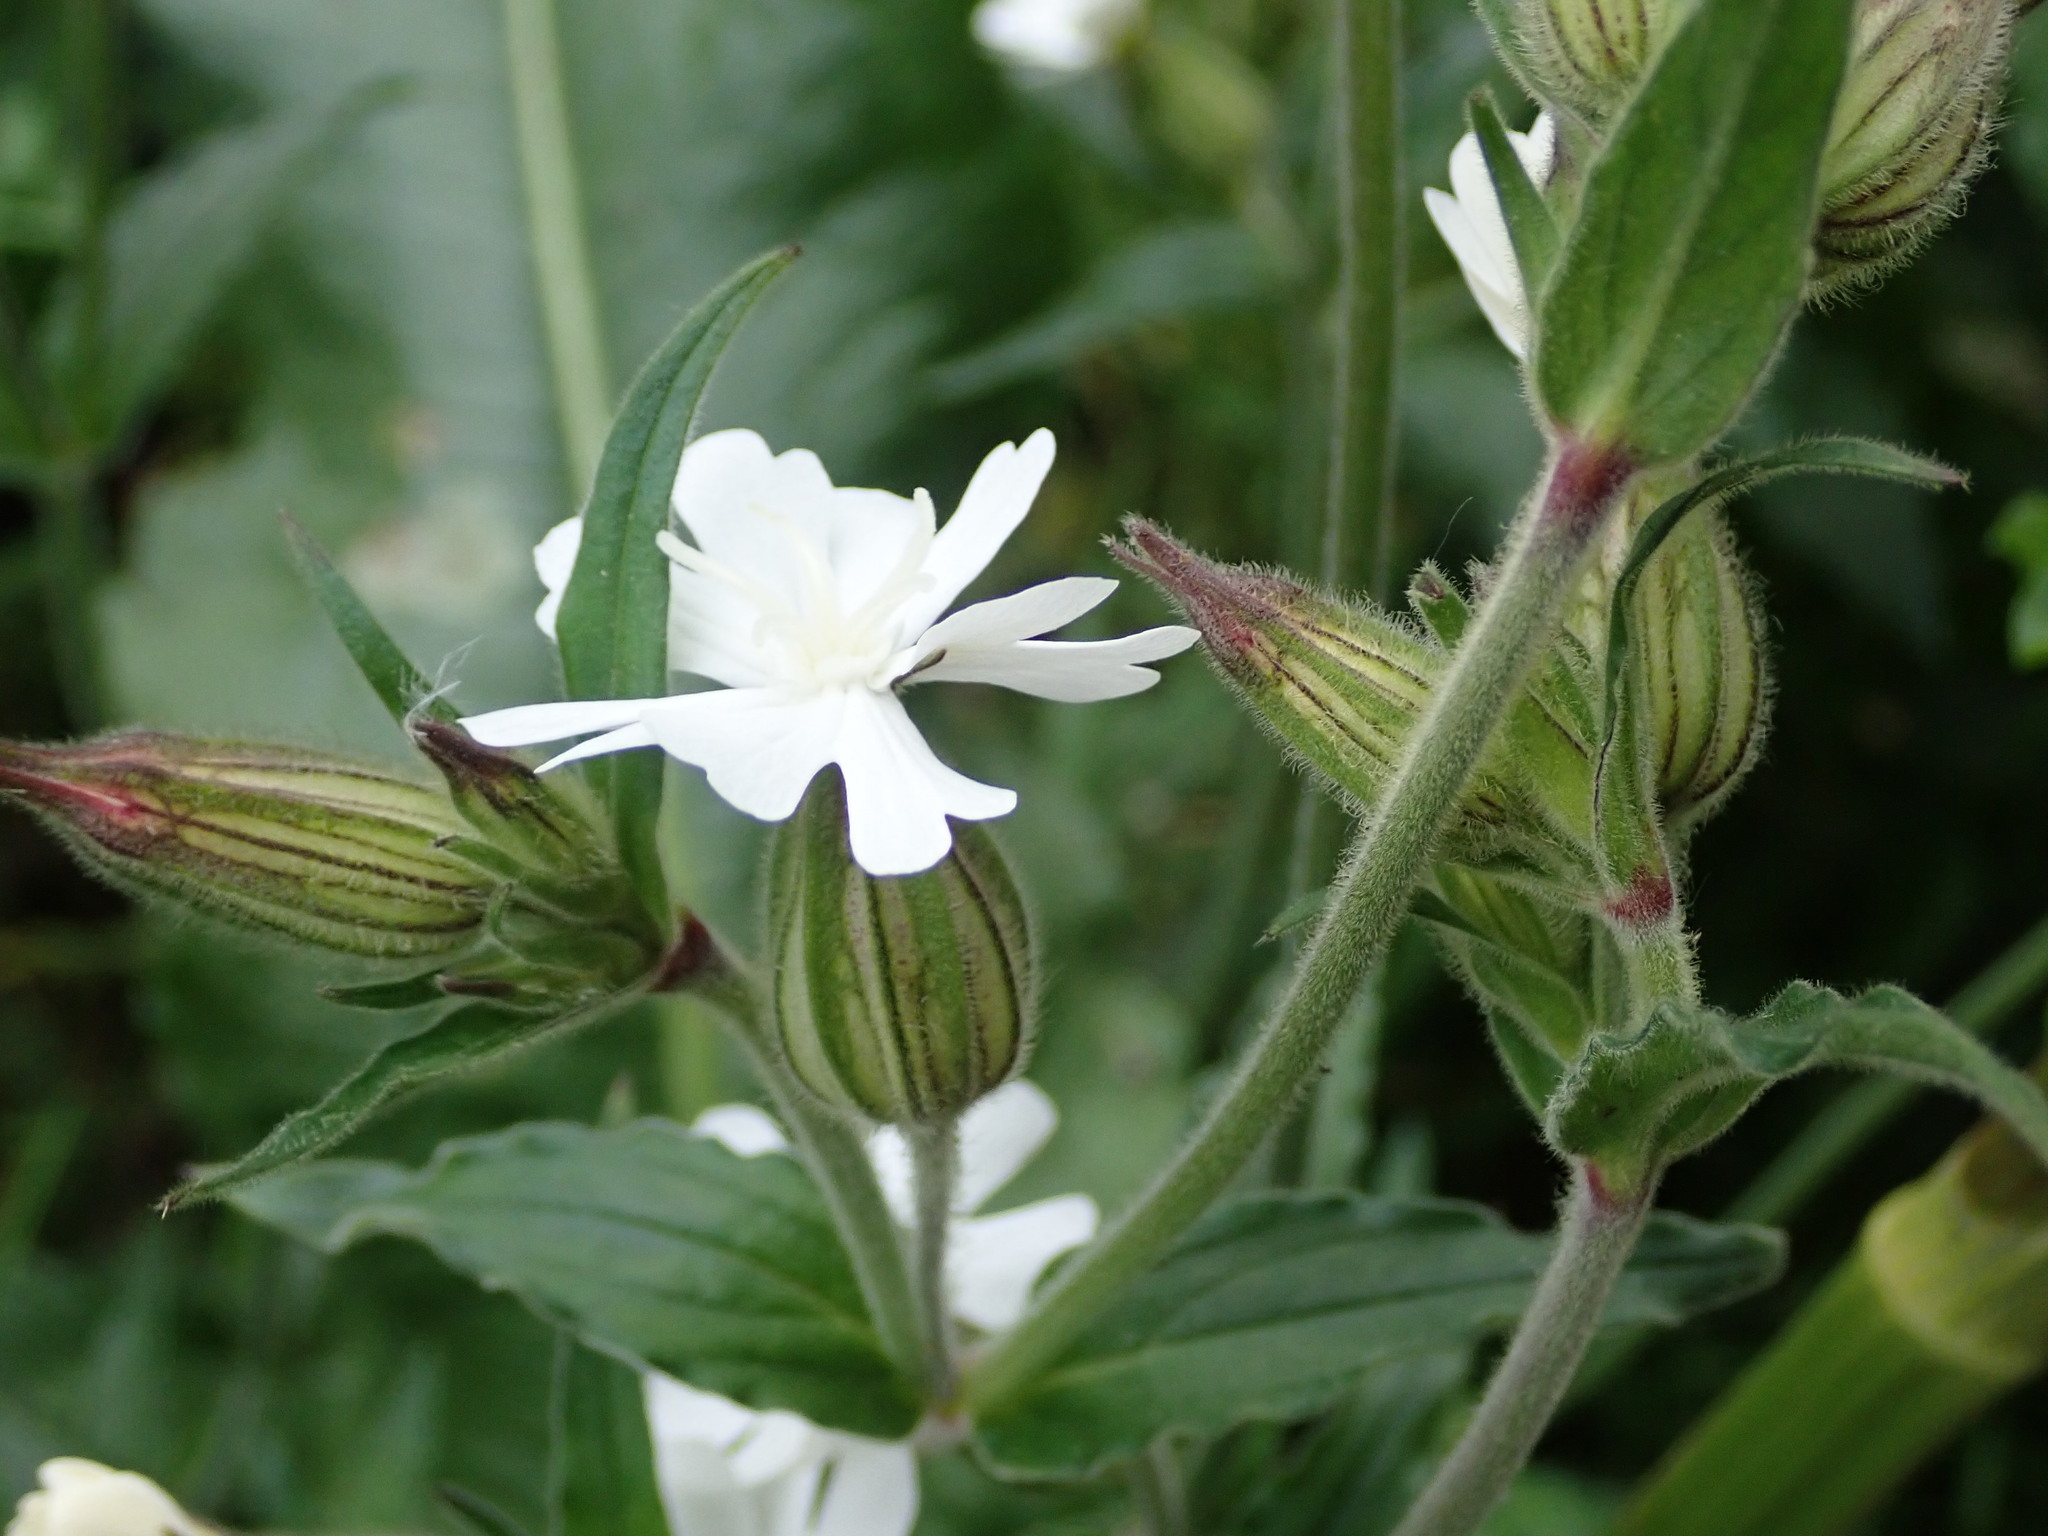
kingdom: Plantae
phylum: Tracheophyta
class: Magnoliopsida
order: Caryophyllales
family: Caryophyllaceae
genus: Silene
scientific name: Silene latifolia
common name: White campion
